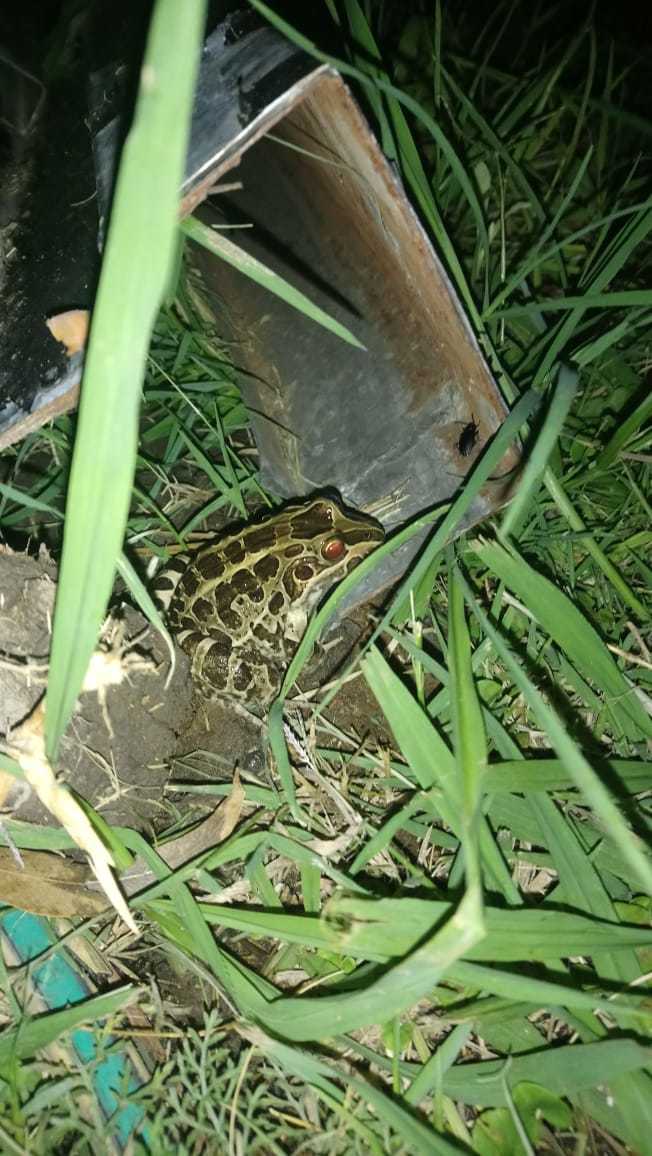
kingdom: Animalia
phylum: Chordata
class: Amphibia
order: Anura
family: Leptodactylidae
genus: Leptodactylus
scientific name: Leptodactylus luctator
